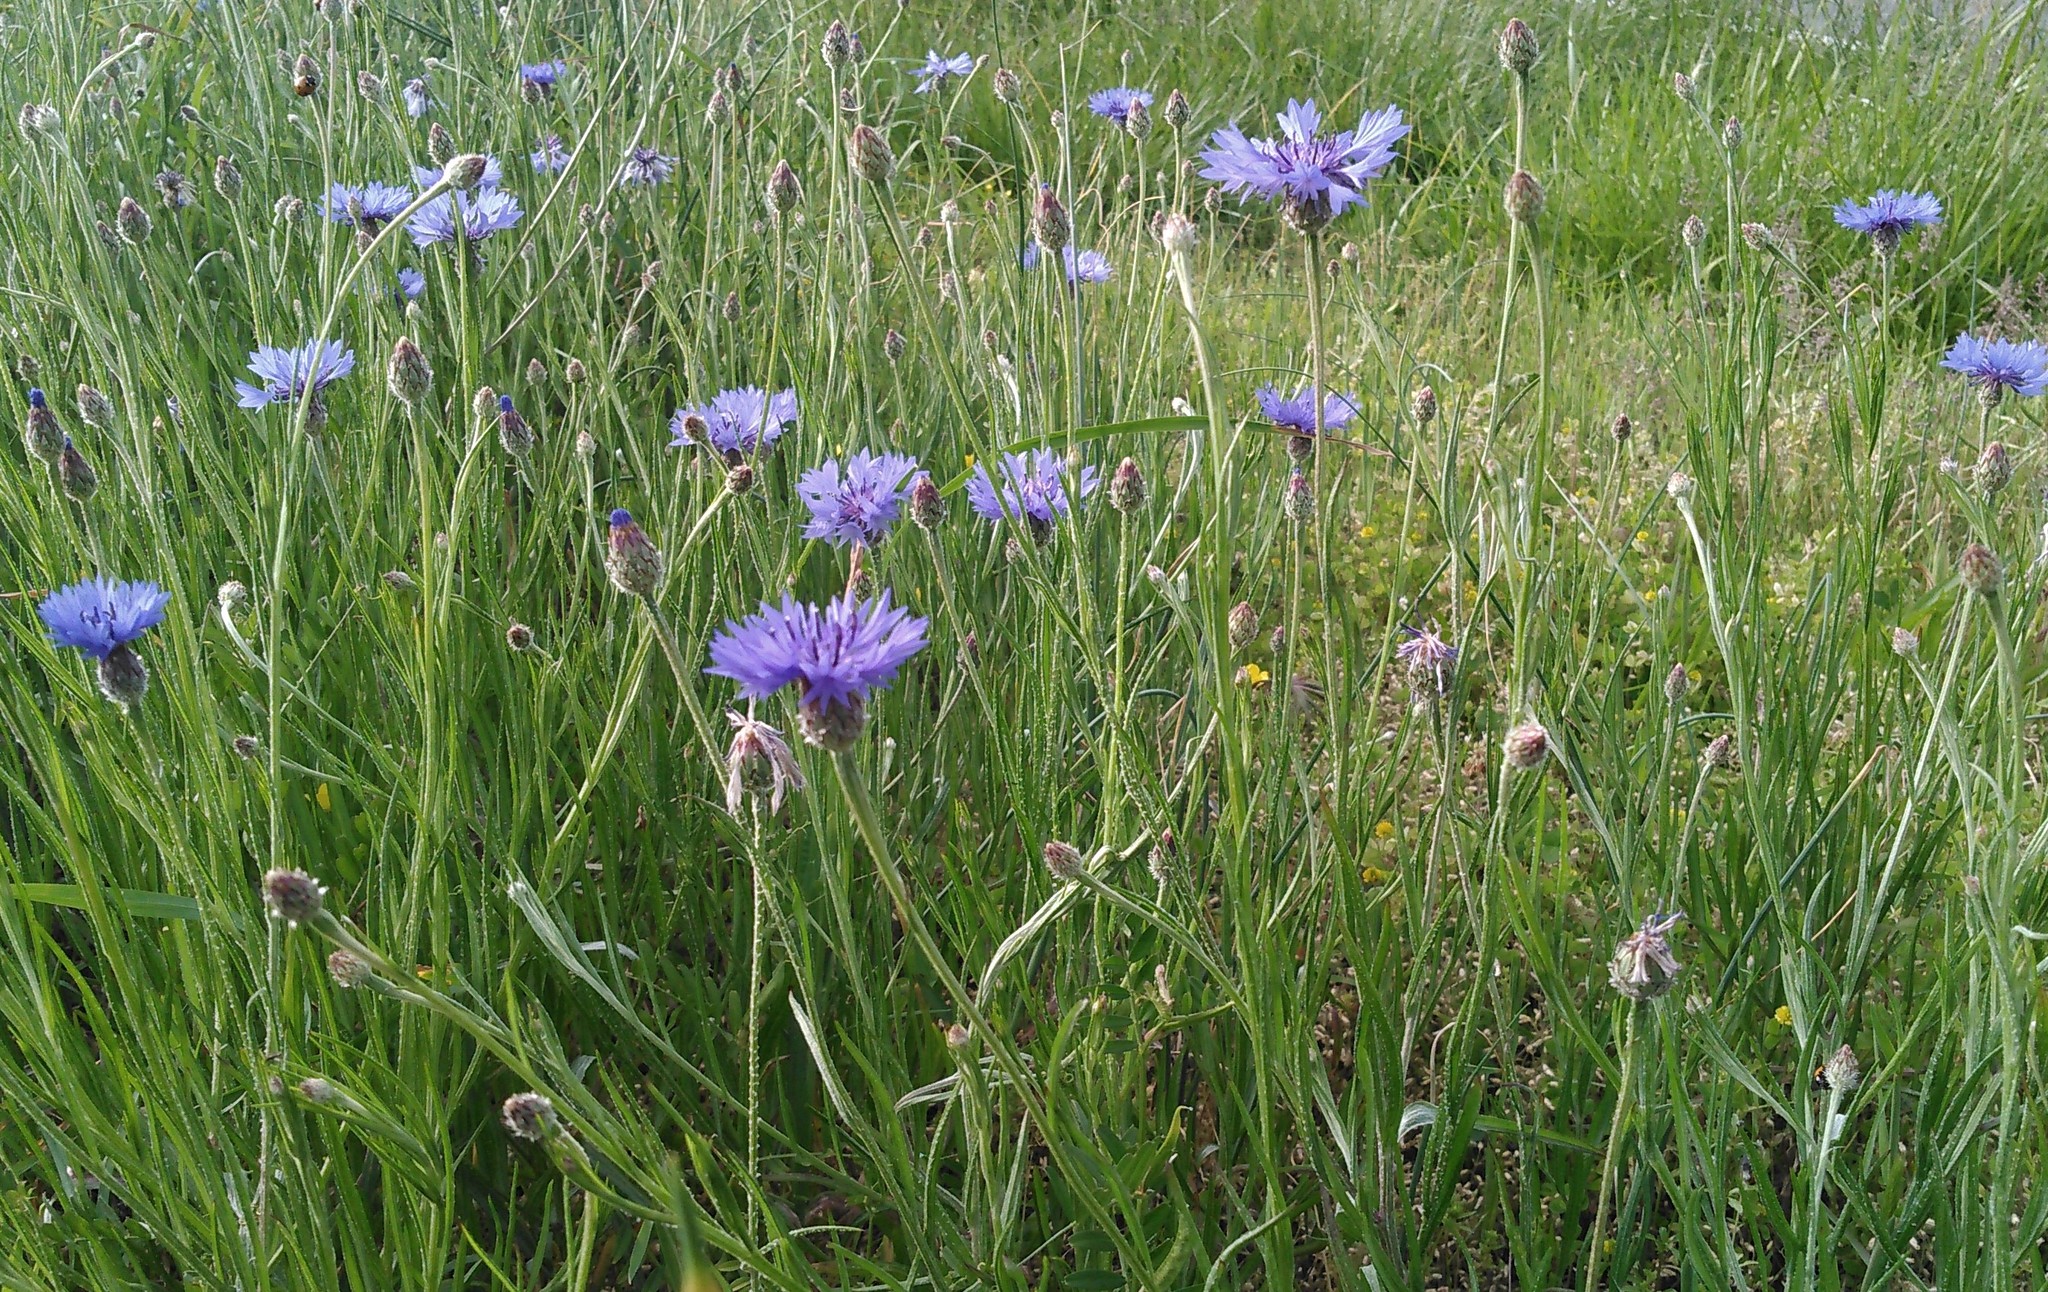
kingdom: Plantae
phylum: Tracheophyta
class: Magnoliopsida
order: Asterales
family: Asteraceae
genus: Centaurea
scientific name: Centaurea cyanus
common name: Cornflower
